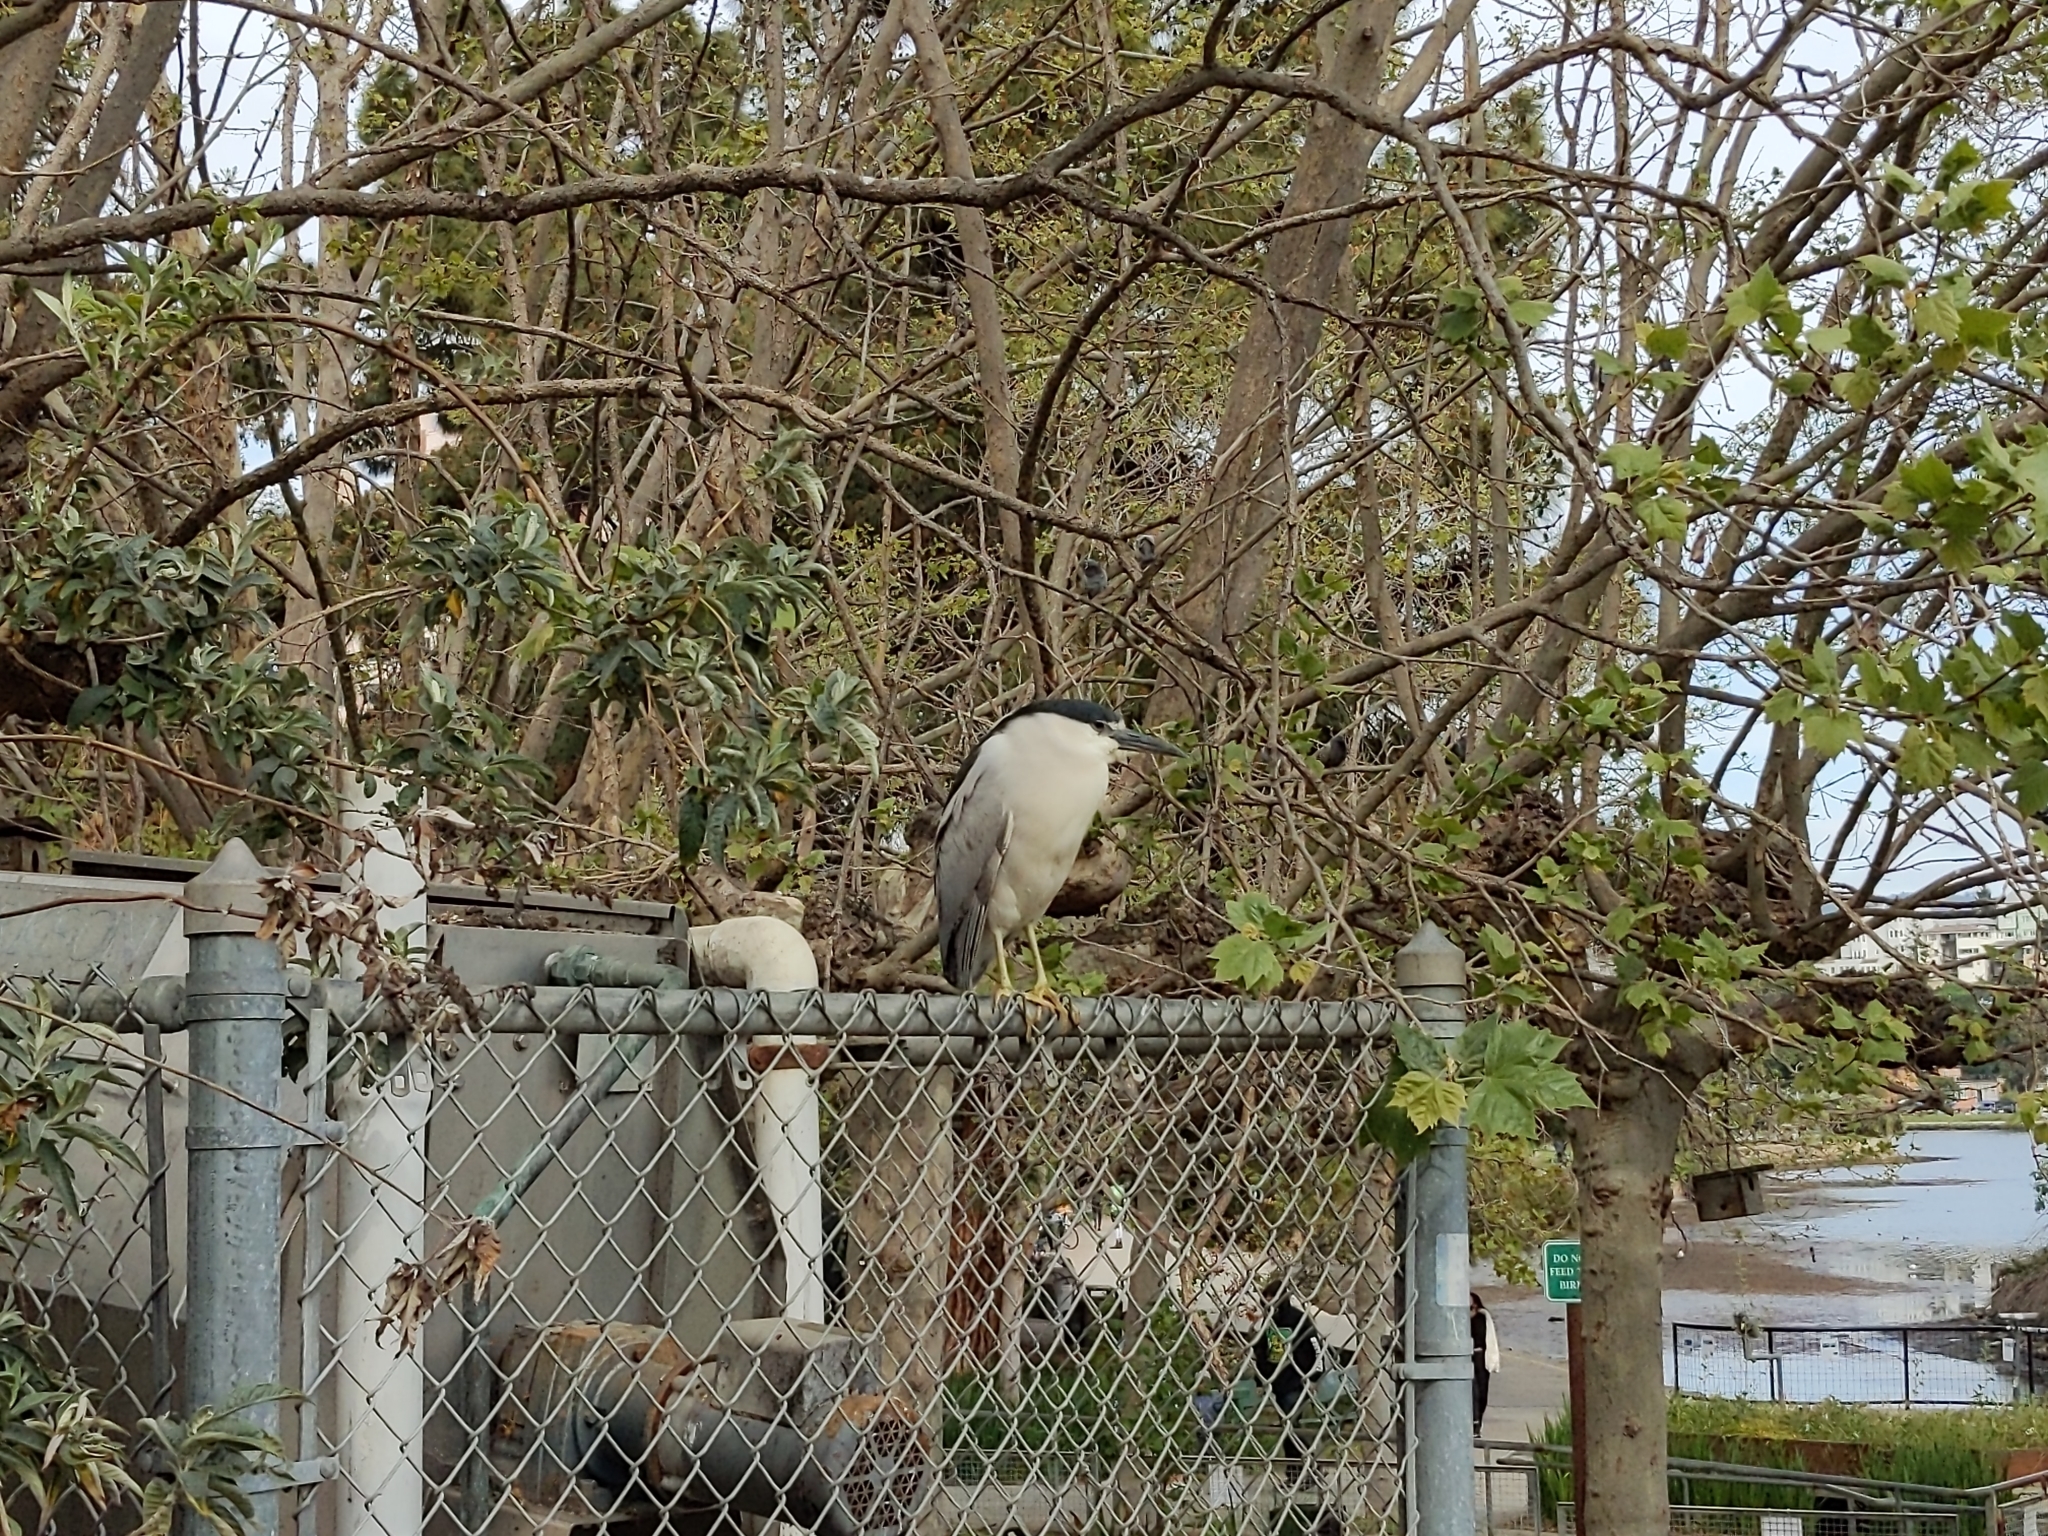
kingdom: Animalia
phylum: Chordata
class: Aves
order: Pelecaniformes
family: Ardeidae
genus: Nycticorax
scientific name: Nycticorax nycticorax
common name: Black-crowned night heron
